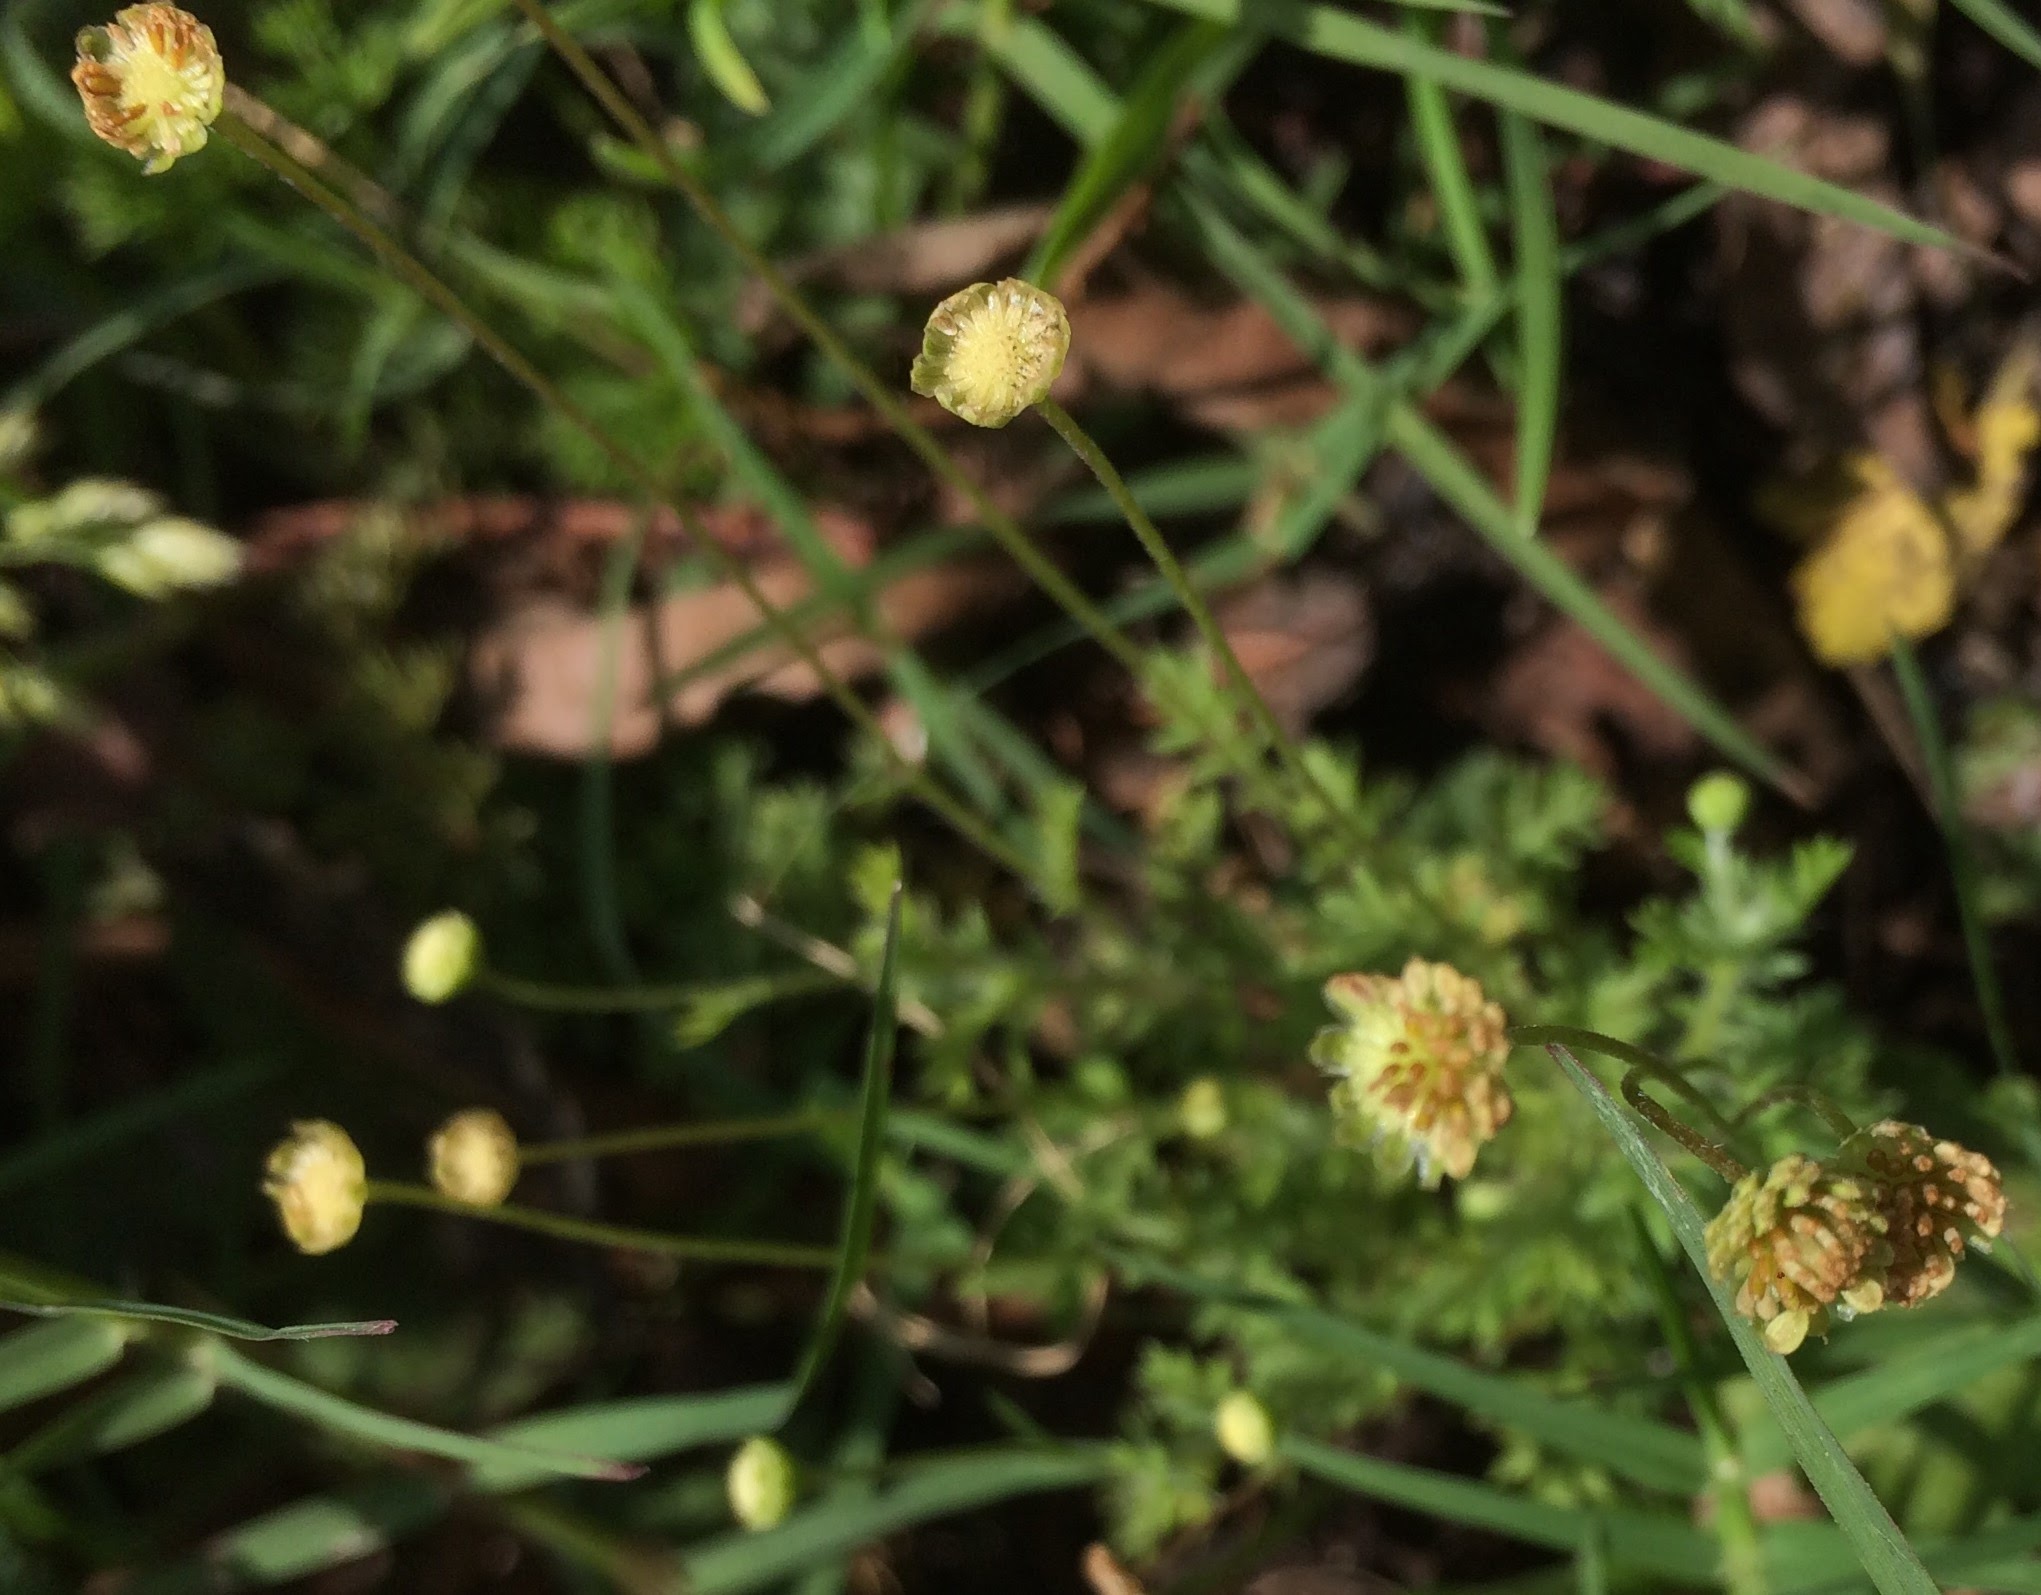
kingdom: Plantae
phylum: Tracheophyta
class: Magnoliopsida
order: Asterales
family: Asteraceae
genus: Cotula
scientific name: Cotula australis
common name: Australian waterbuttons
